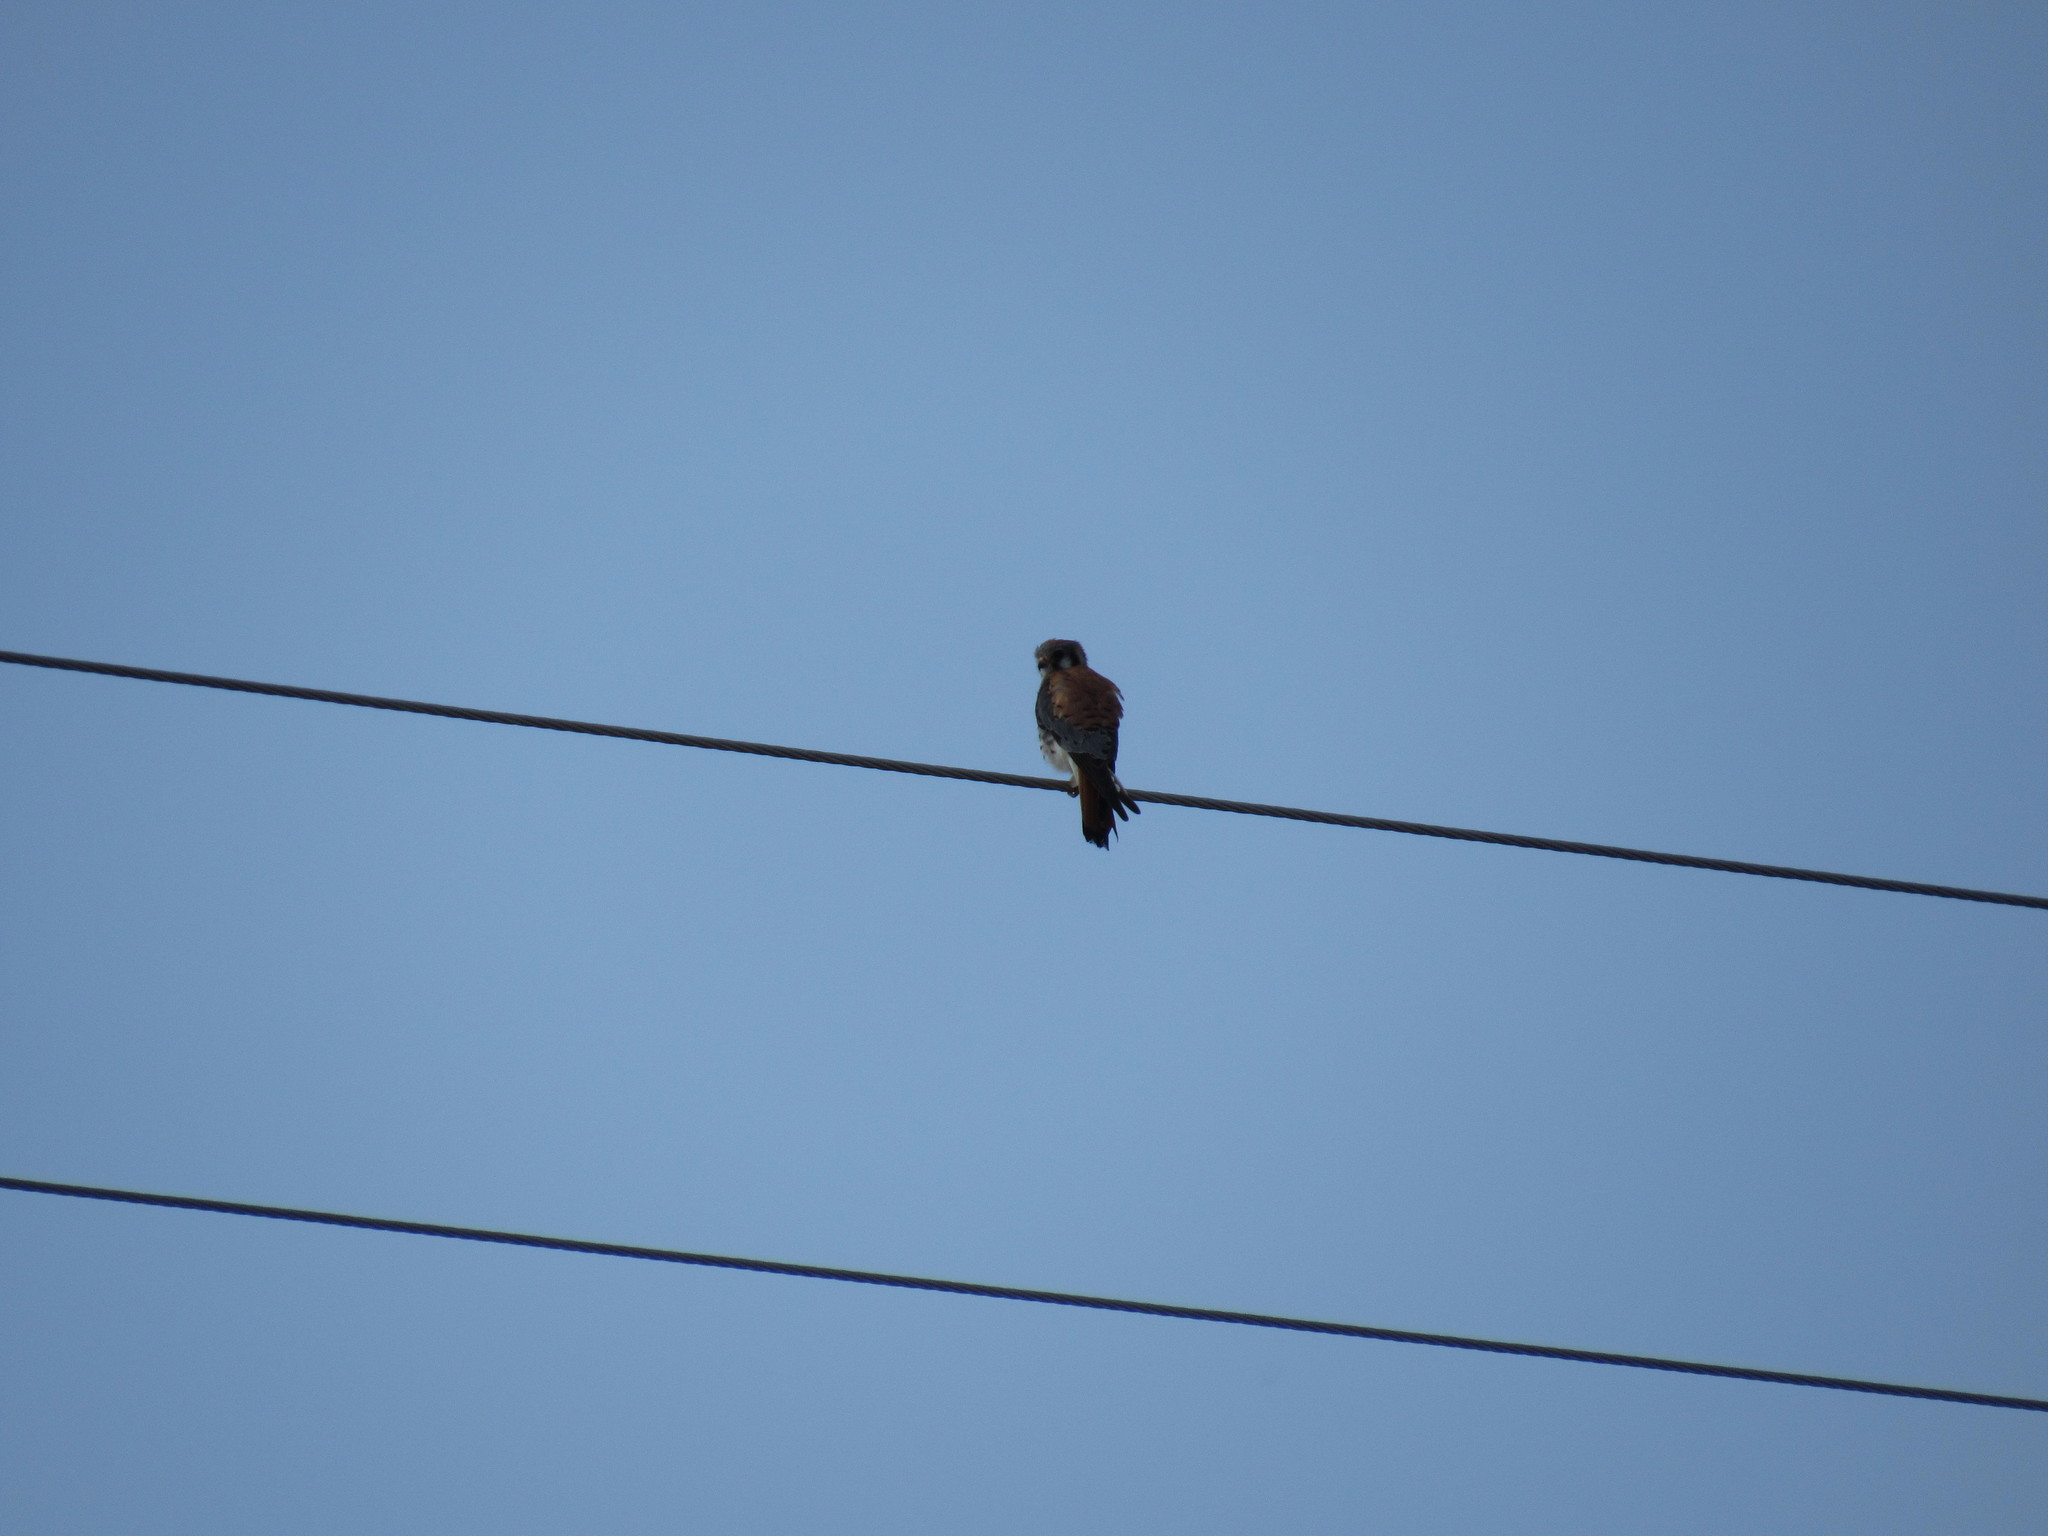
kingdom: Animalia
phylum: Chordata
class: Aves
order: Falconiformes
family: Falconidae
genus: Falco
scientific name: Falco sparverius
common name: American kestrel
